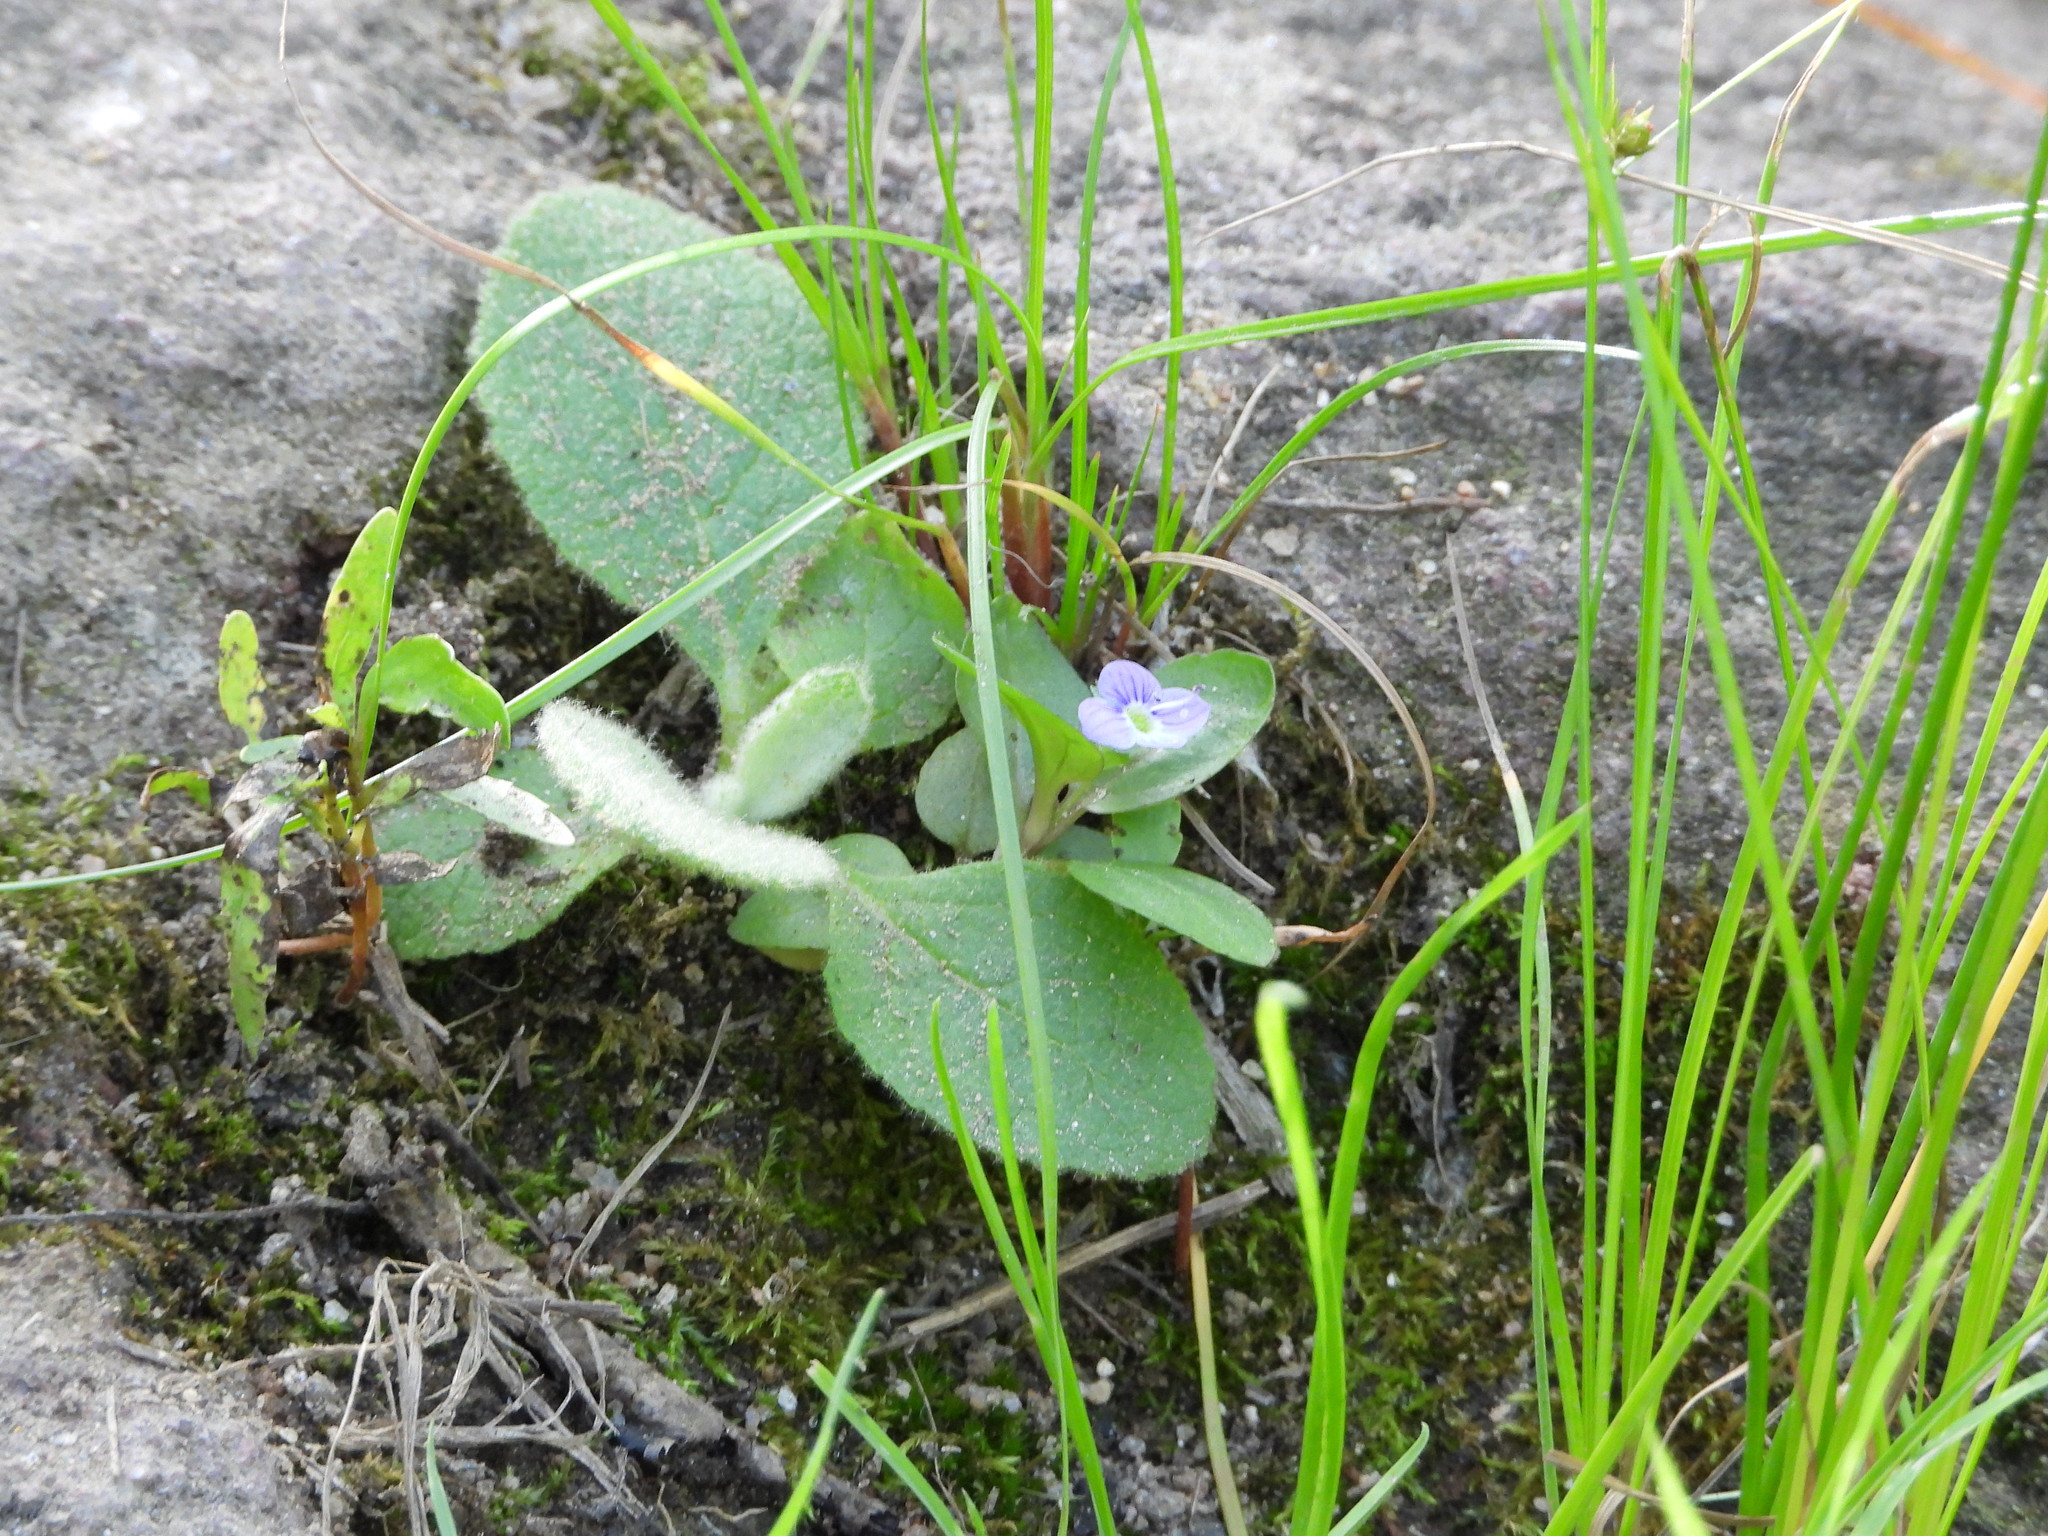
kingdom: Plantae
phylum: Tracheophyta
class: Magnoliopsida
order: Lamiales
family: Plantaginaceae
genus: Veronica
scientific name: Veronica anagallis-aquatica
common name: Water speedwell
